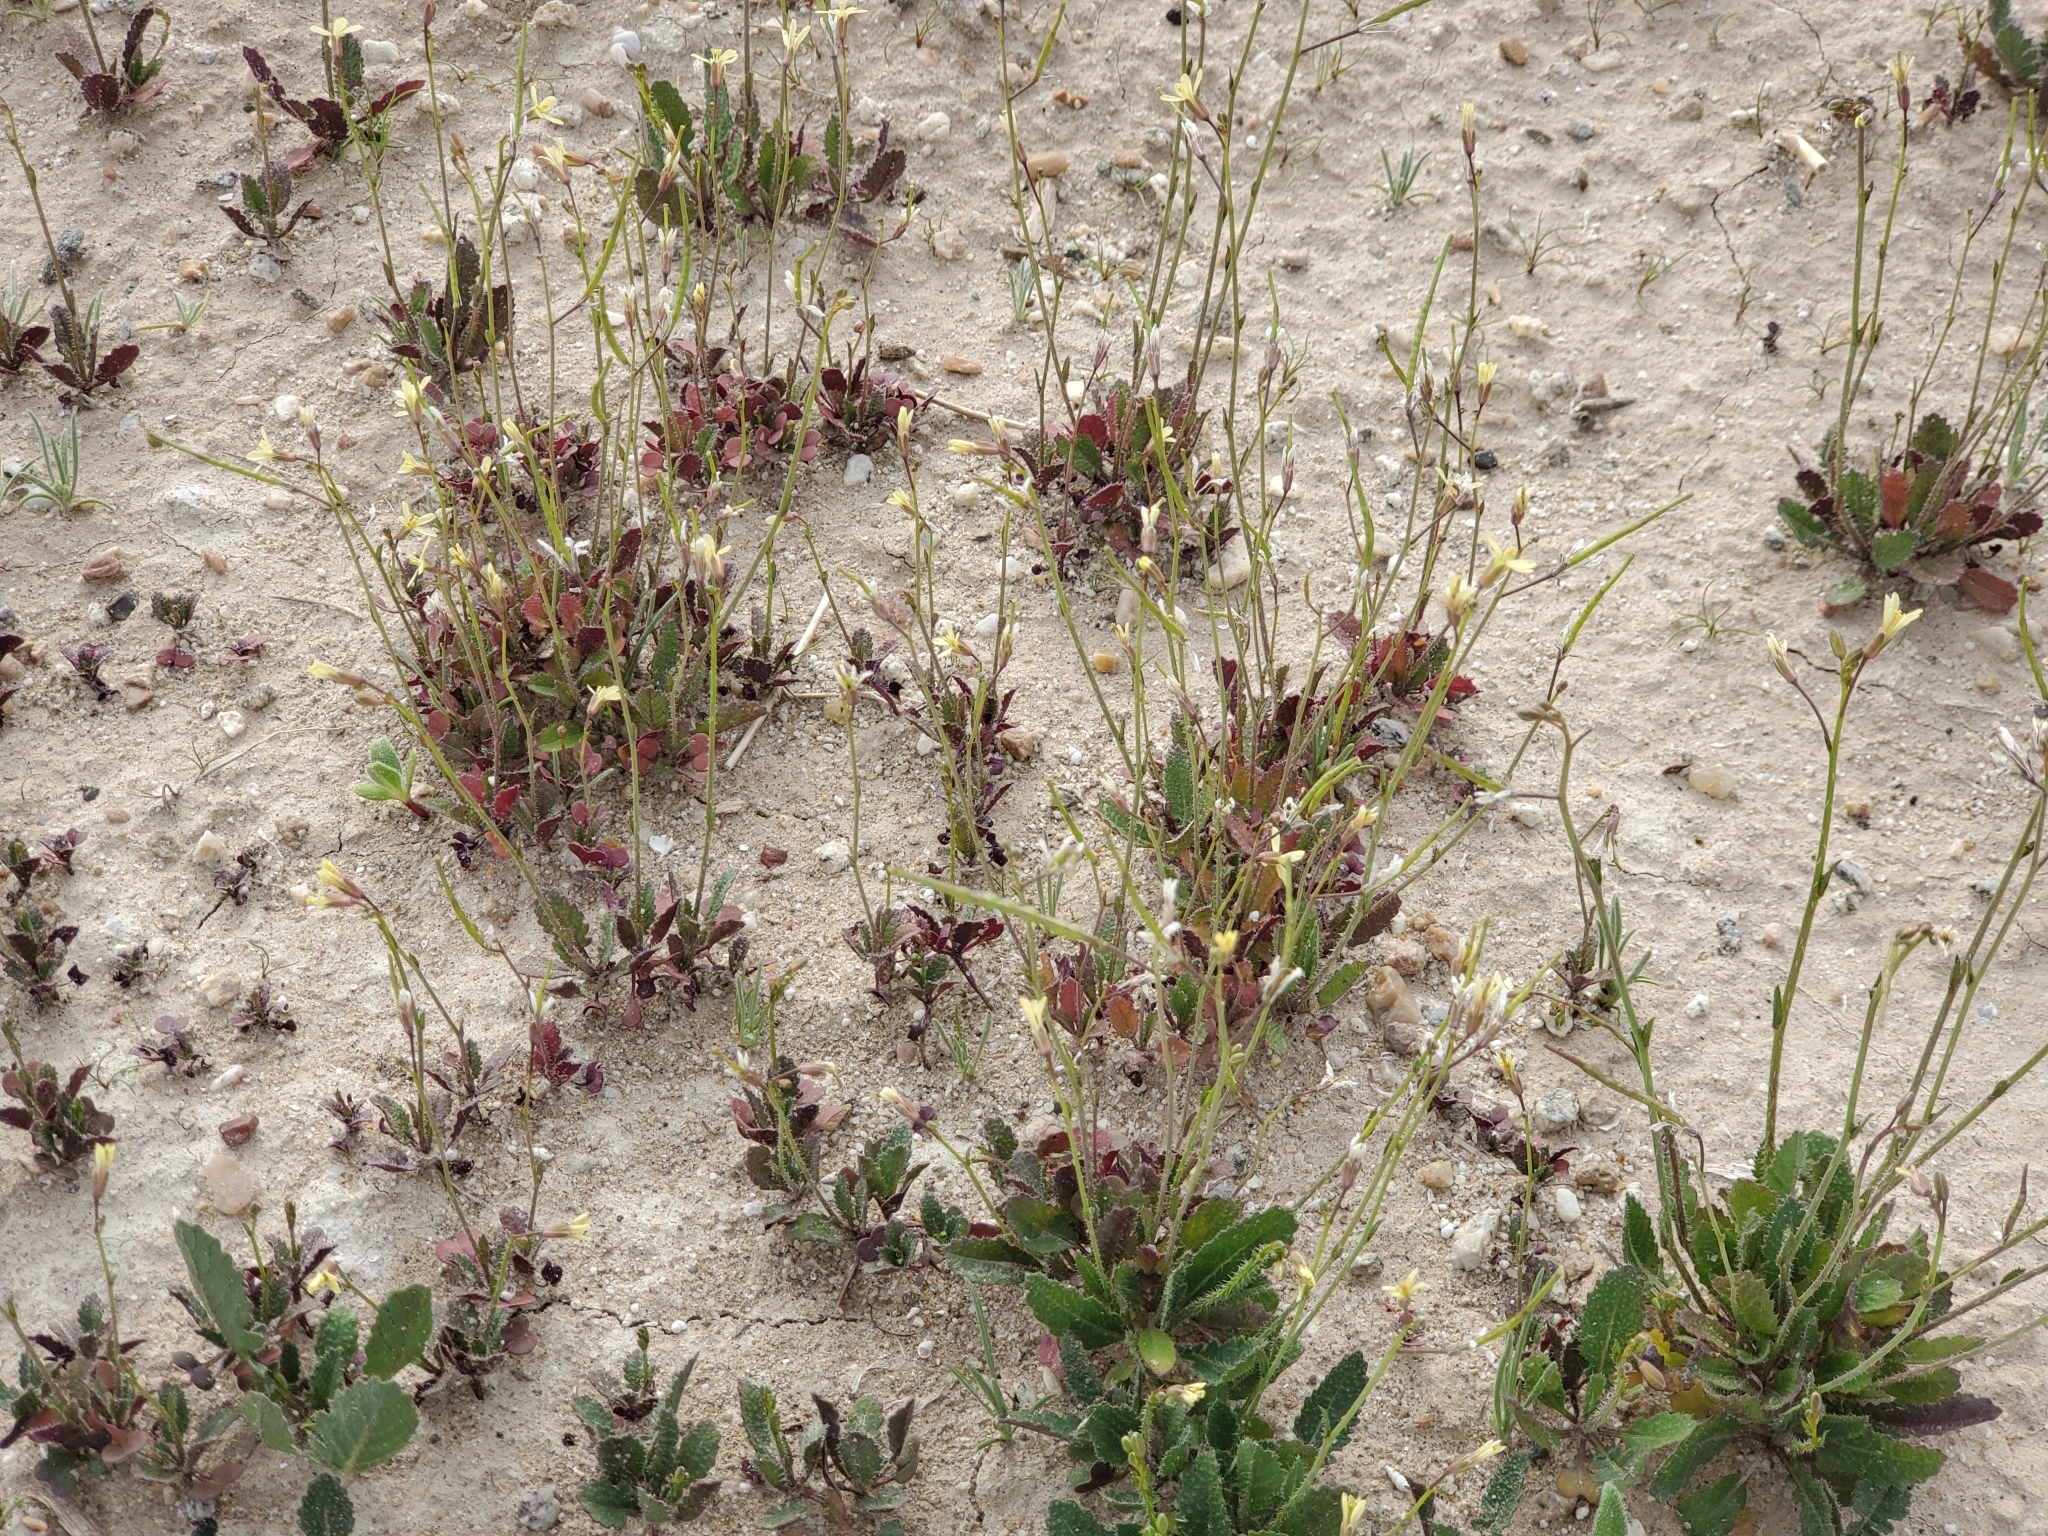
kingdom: Plantae
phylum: Tracheophyta
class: Magnoliopsida
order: Brassicales
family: Brassicaceae
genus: Brassica
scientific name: Brassica tournefortii
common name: Pale cabbage
